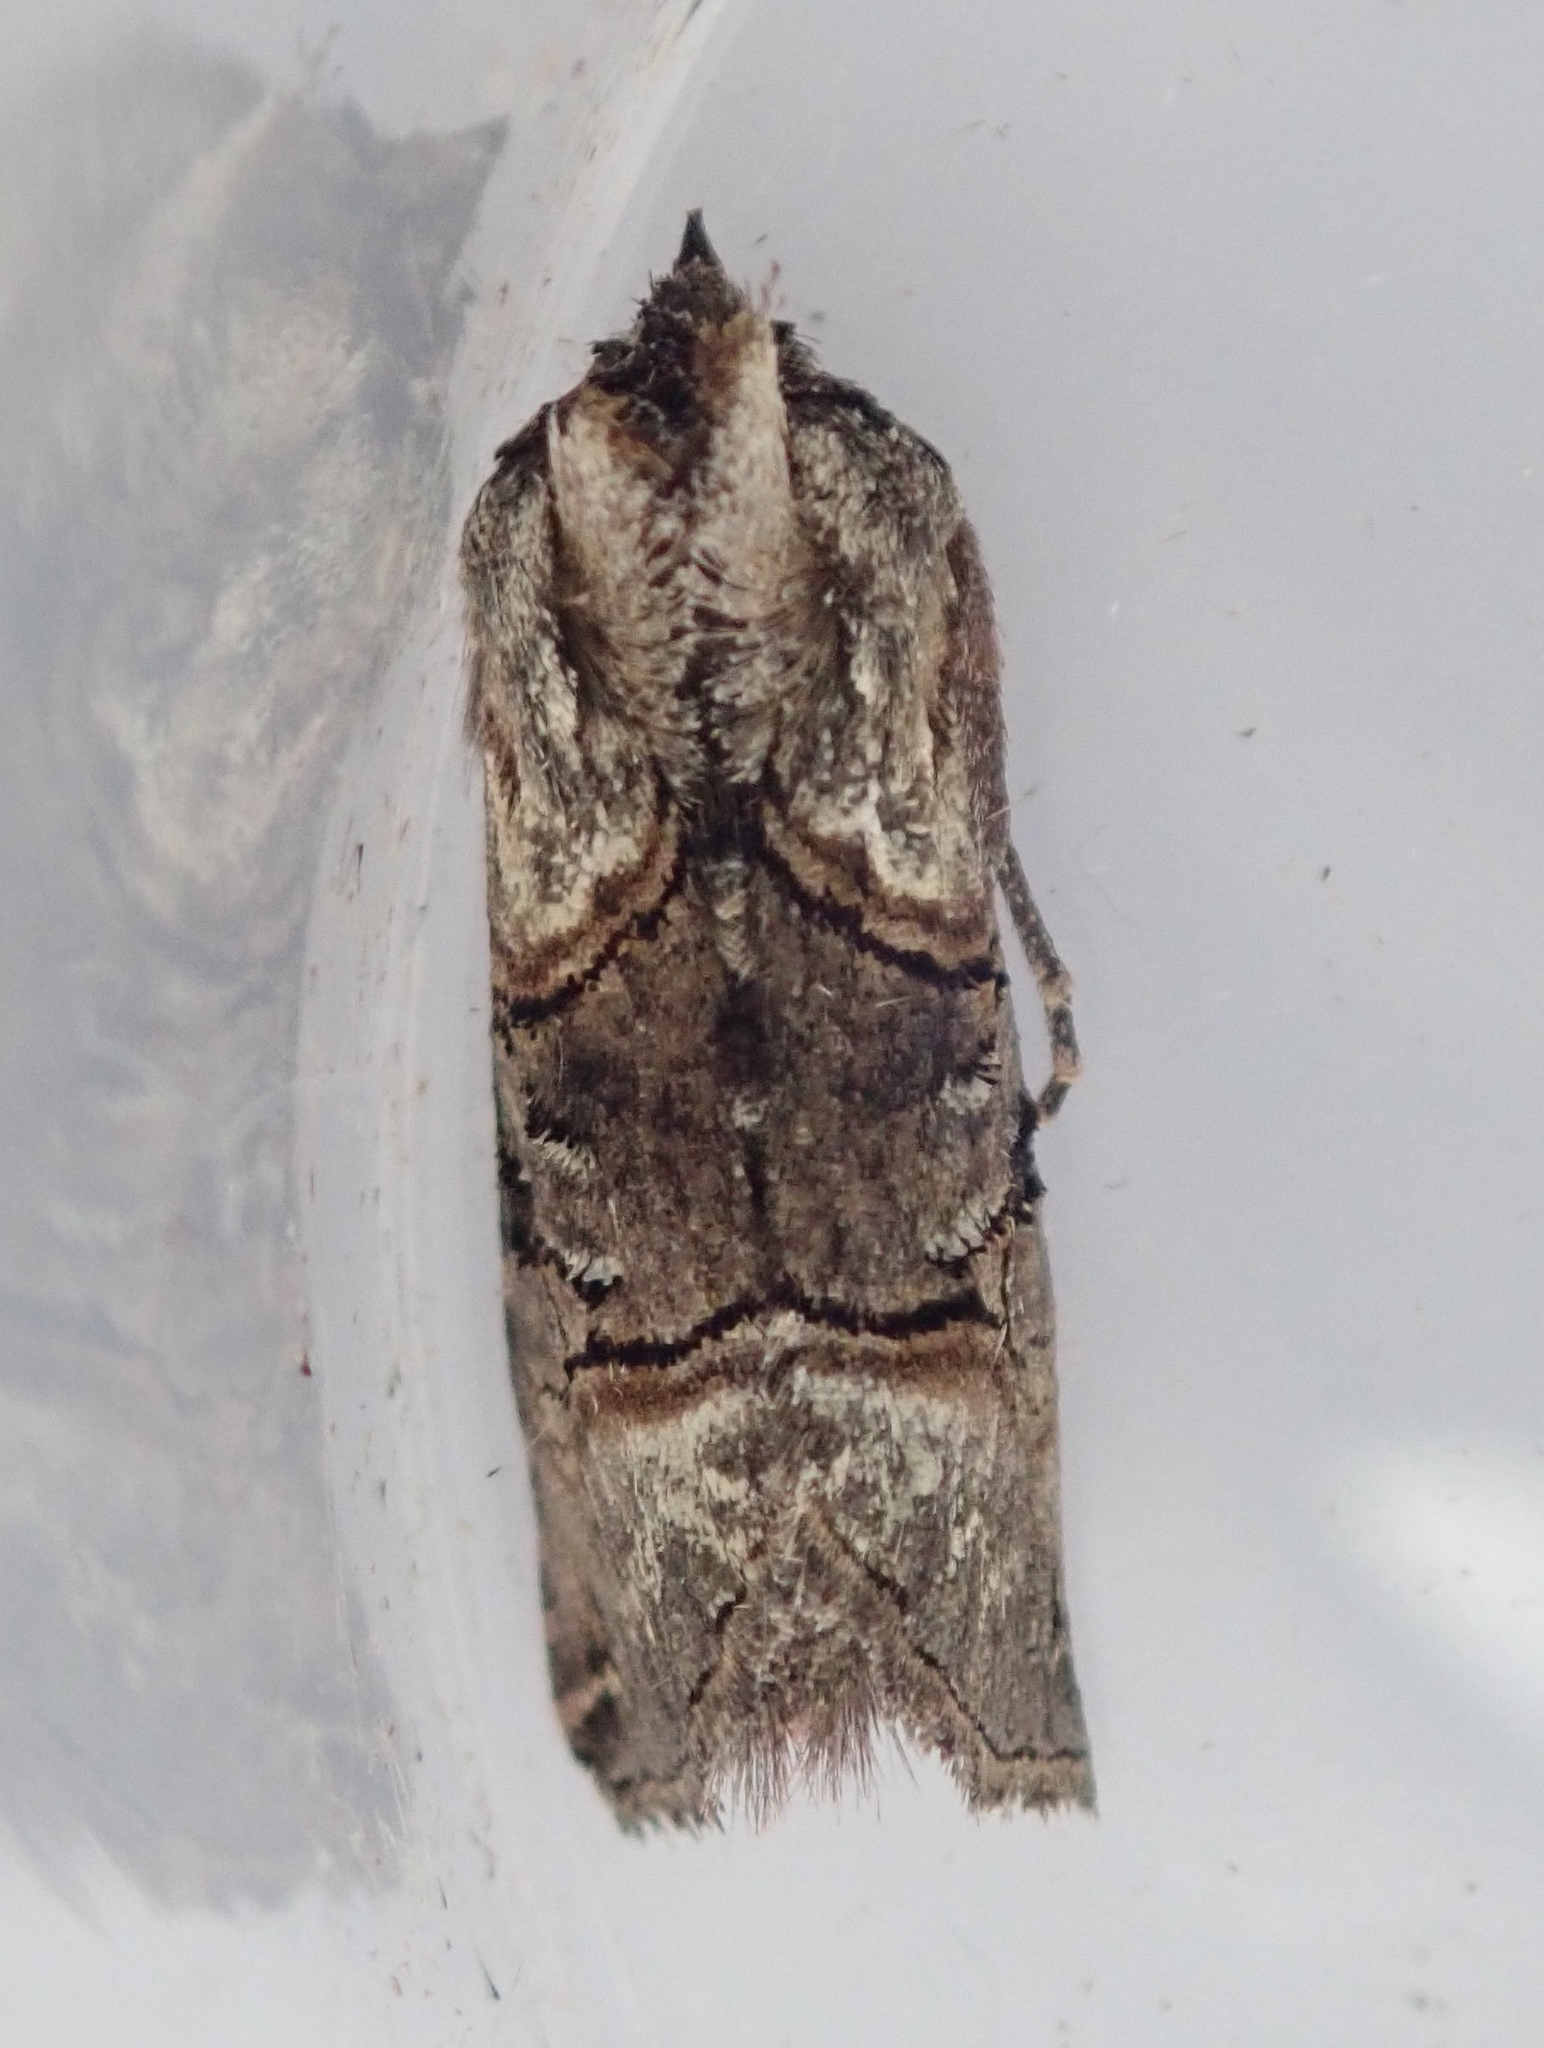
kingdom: Animalia
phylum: Arthropoda
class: Insecta
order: Lepidoptera
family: Noctuidae
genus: Abrostola
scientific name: Abrostola tripartita
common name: Spectacle
